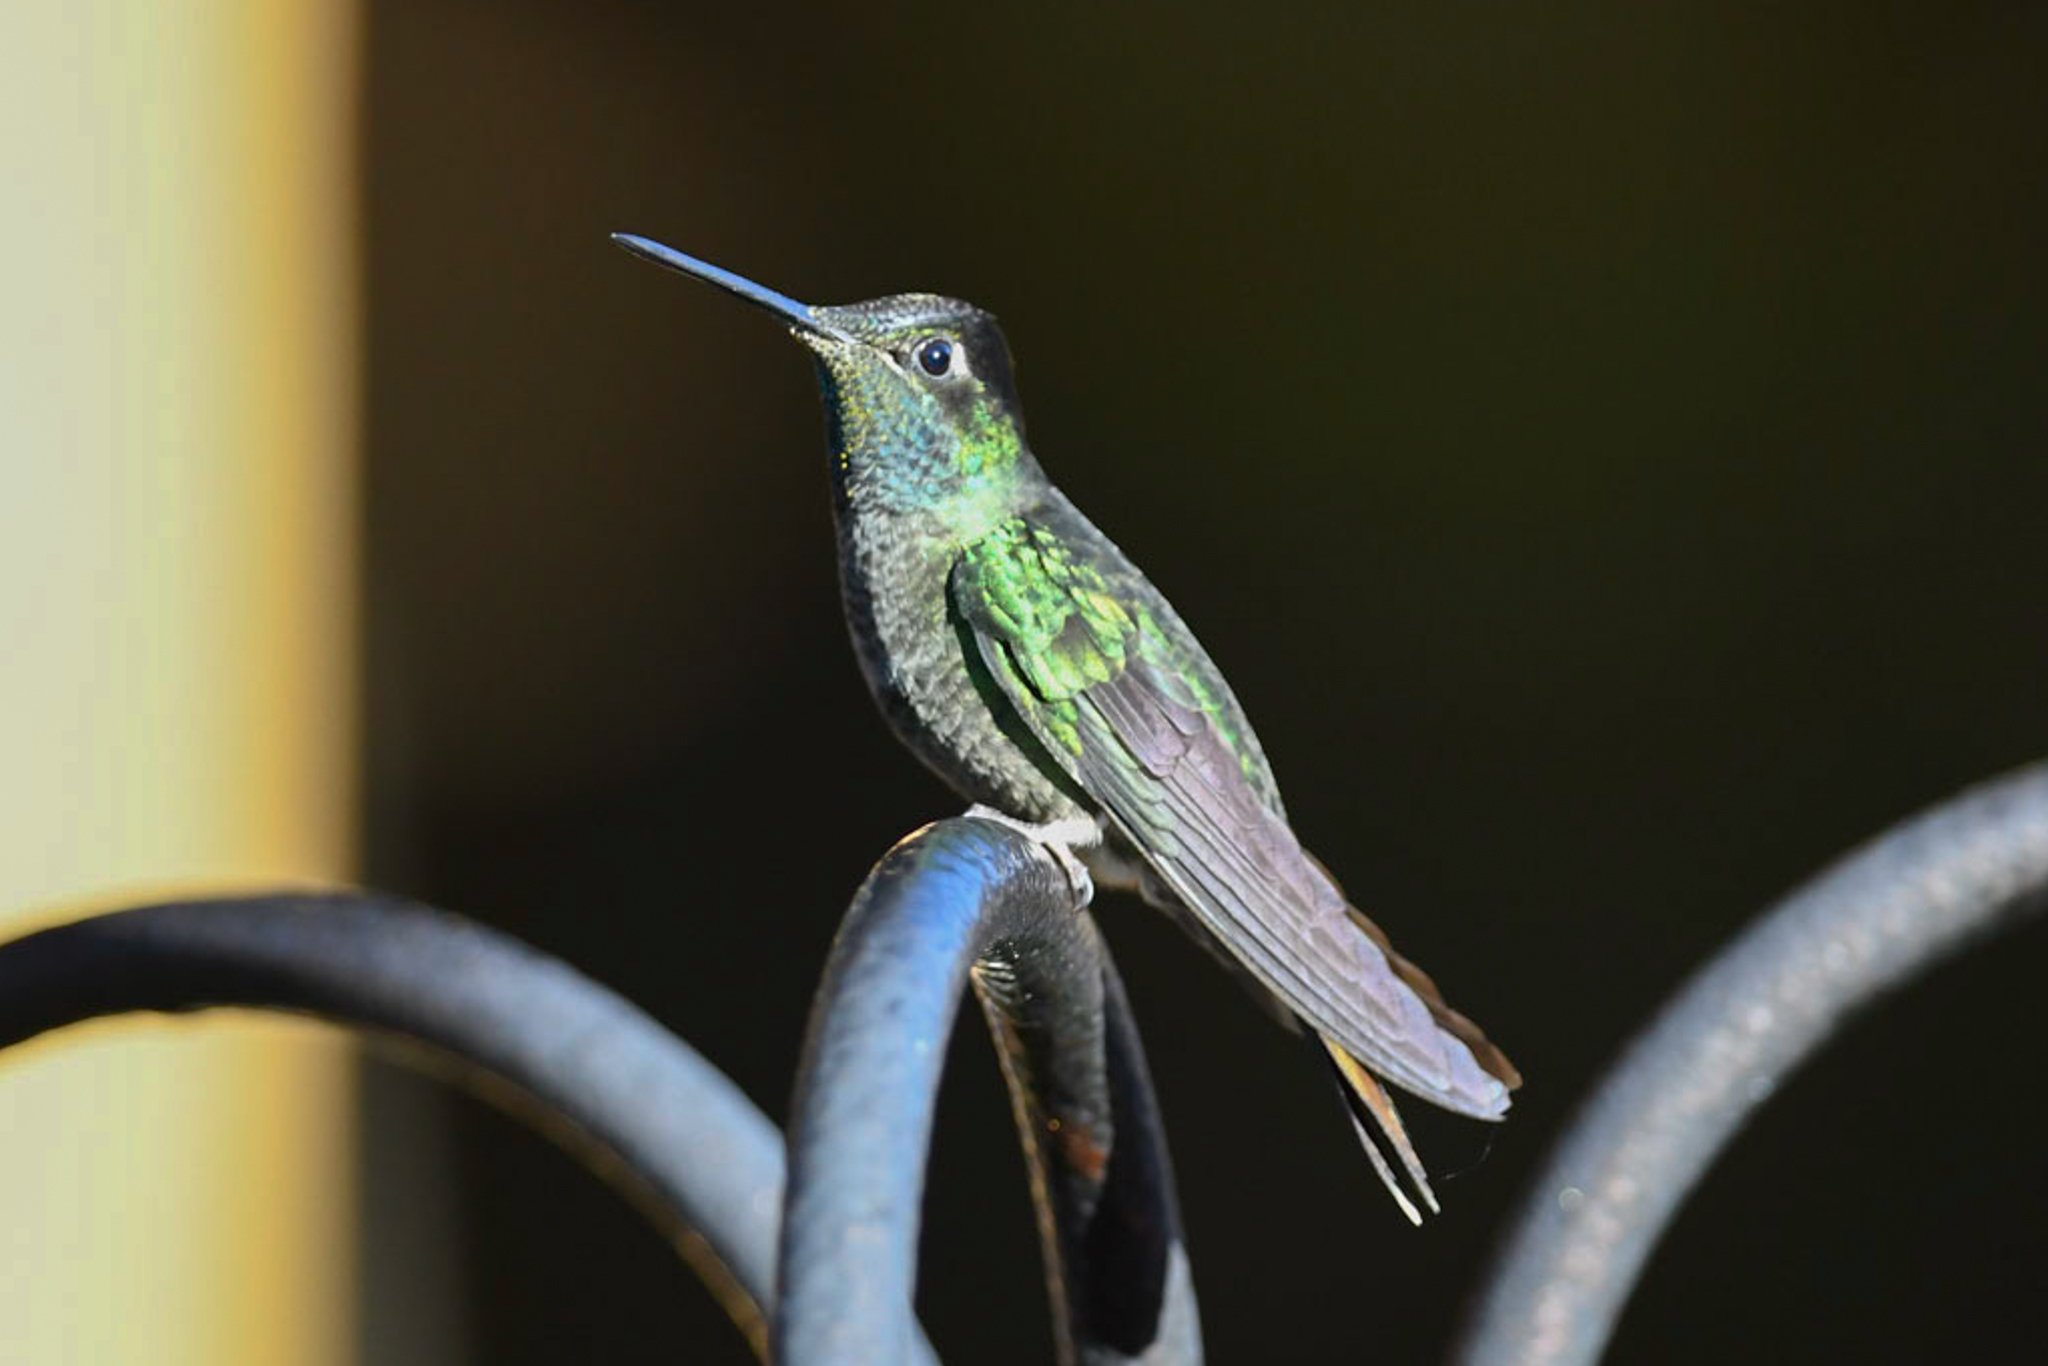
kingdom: Animalia
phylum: Chordata
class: Aves
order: Apodiformes
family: Trochilidae
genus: Eugenes
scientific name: Eugenes spectabilis
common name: Talamanca hummingbird
